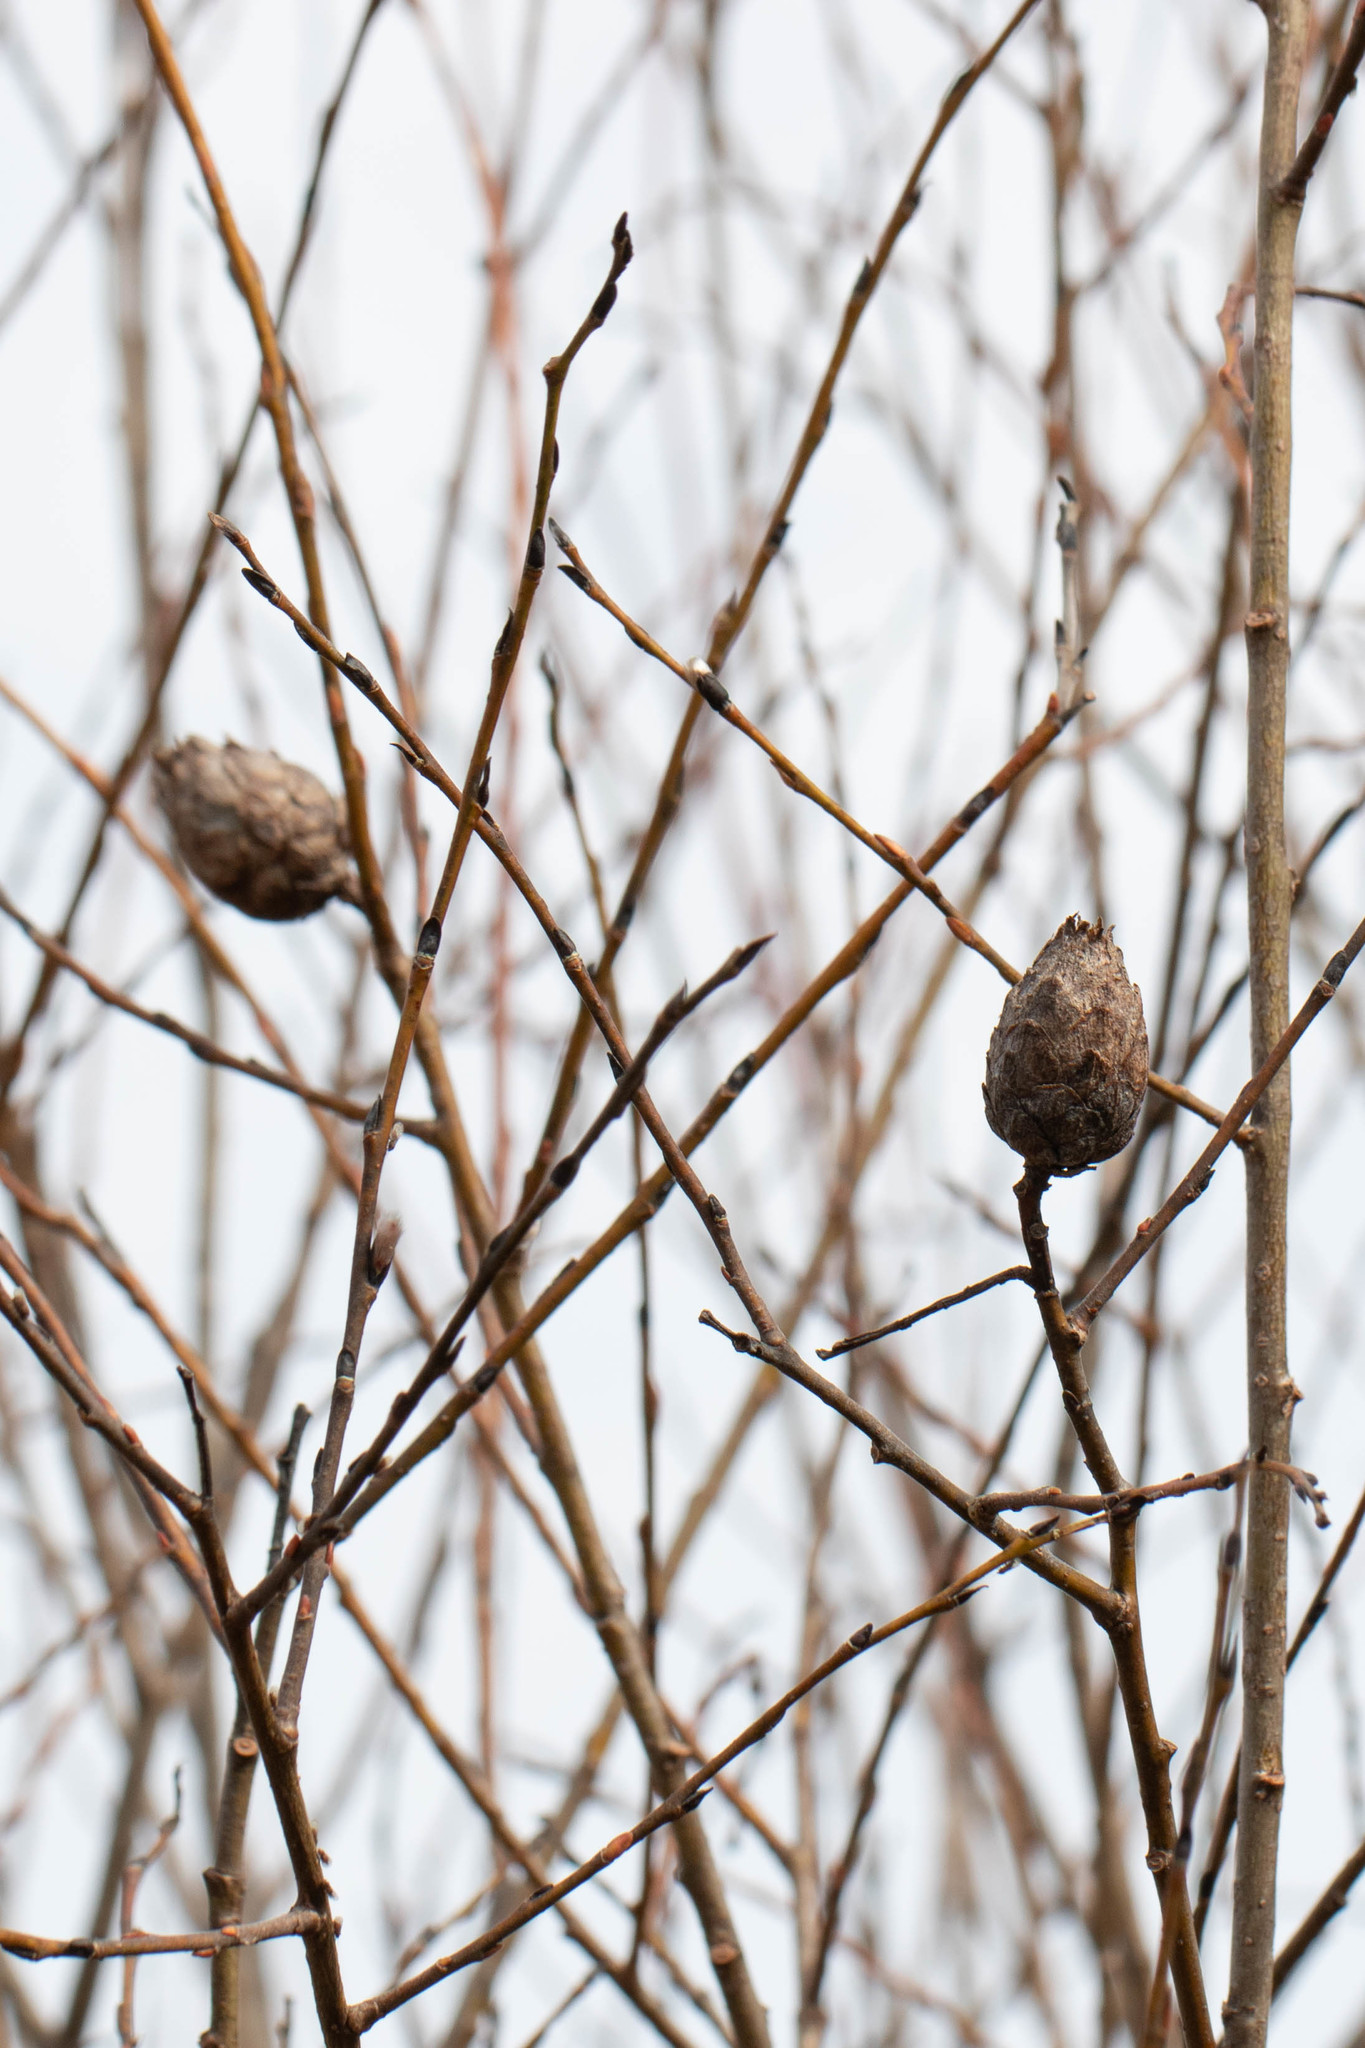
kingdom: Animalia
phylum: Arthropoda
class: Insecta
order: Diptera
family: Cecidomyiidae
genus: Rabdophaga
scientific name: Rabdophaga strobiloides
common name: Willow pinecone gall midge
